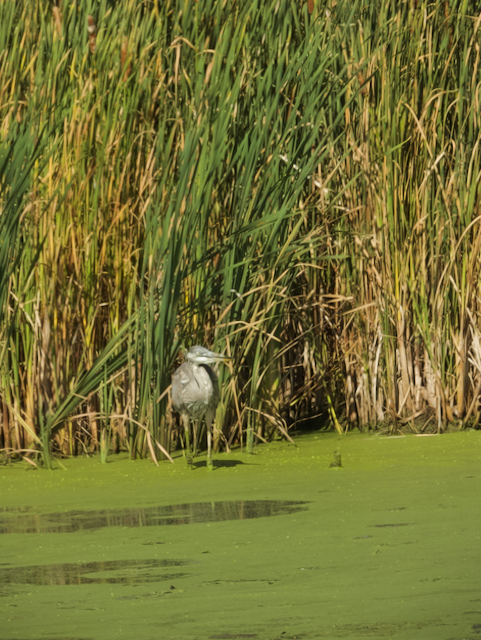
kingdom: Animalia
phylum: Chordata
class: Aves
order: Pelecaniformes
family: Ardeidae
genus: Ardea
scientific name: Ardea herodias
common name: Great blue heron
